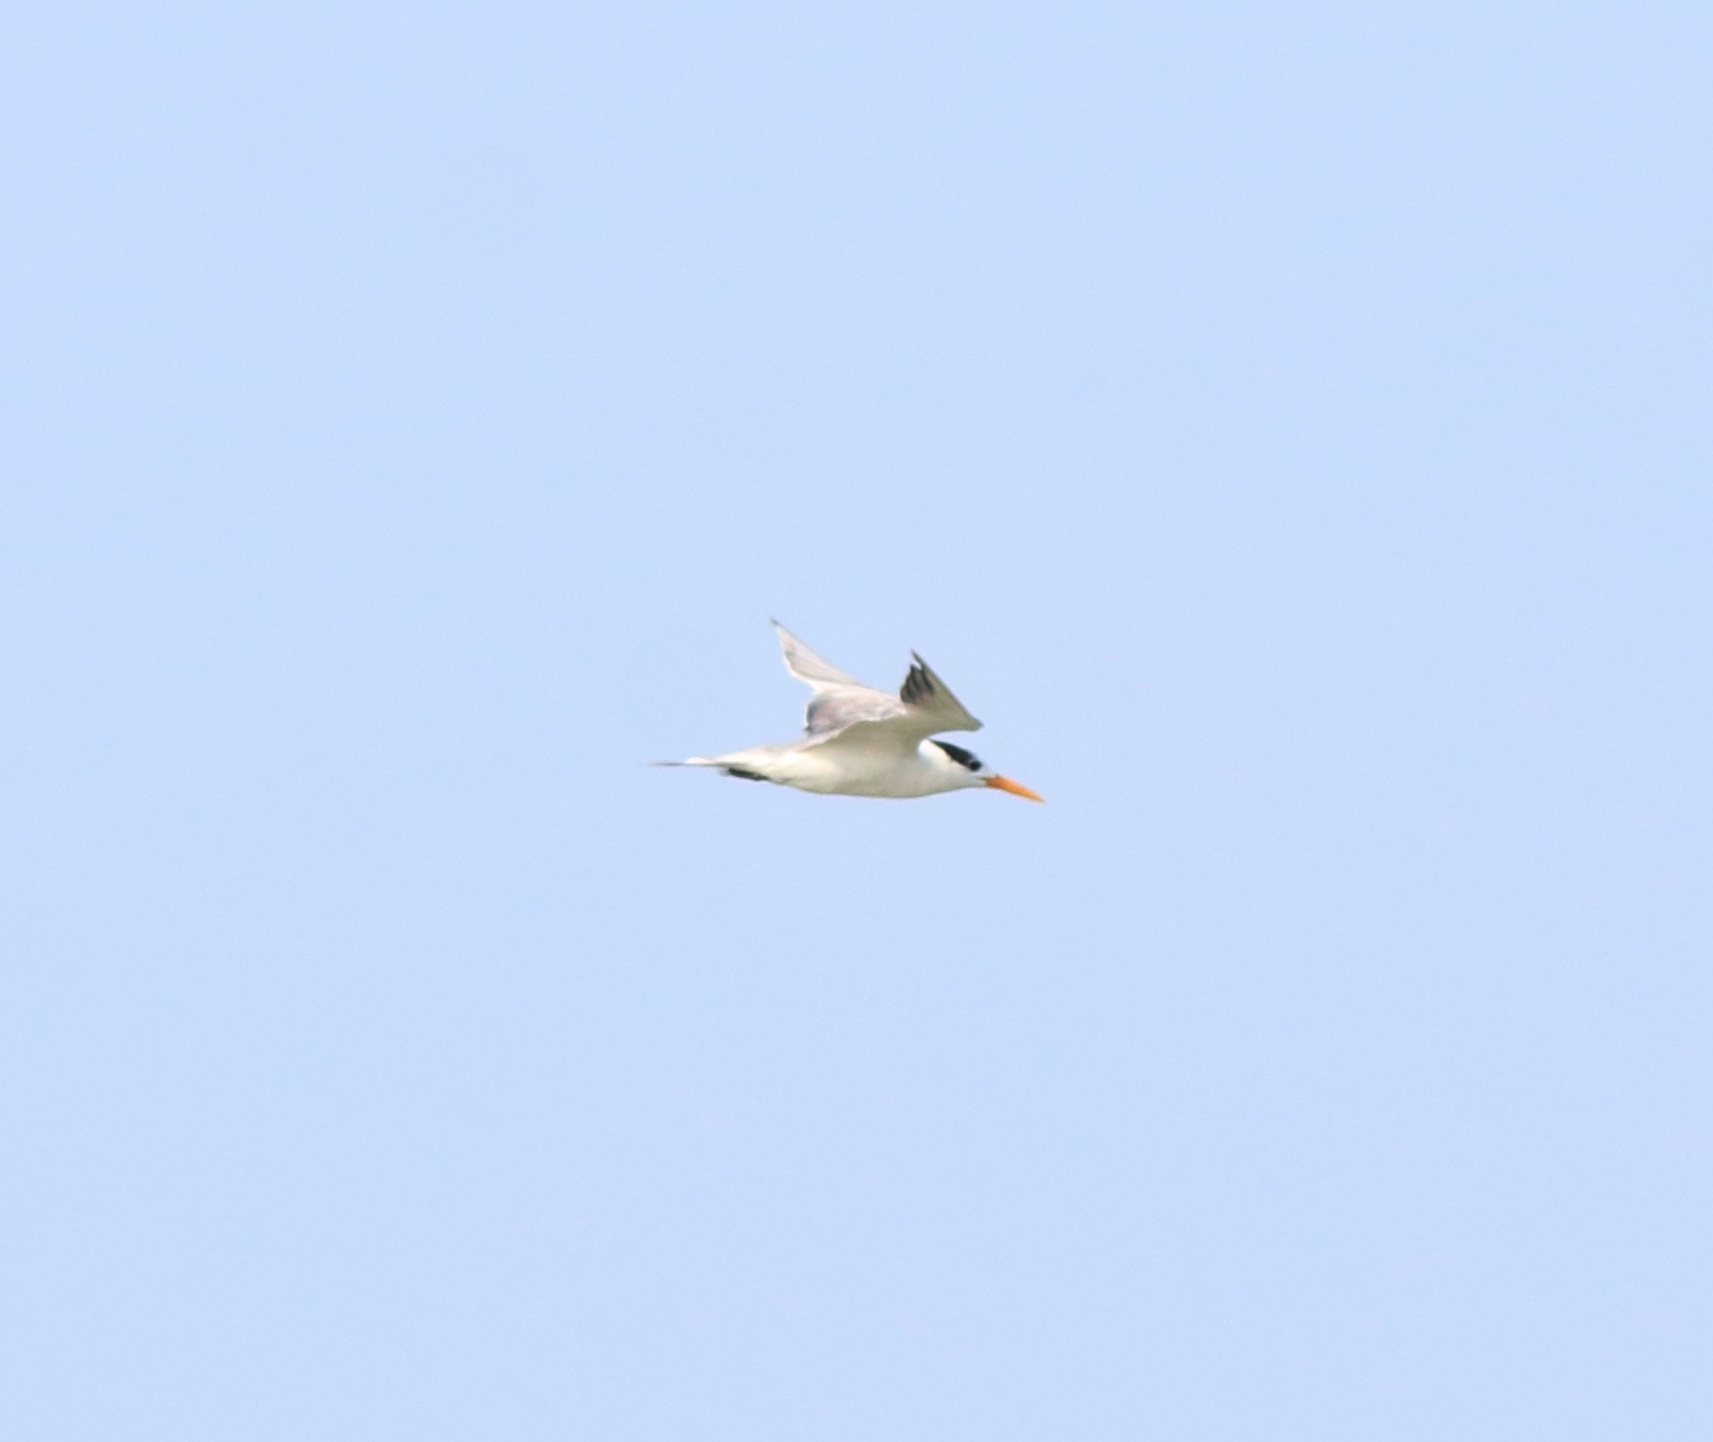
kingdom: Animalia
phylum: Chordata
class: Aves
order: Charadriiformes
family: Laridae
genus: Thalasseus
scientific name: Thalasseus bengalensis
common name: Lesser crested tern
